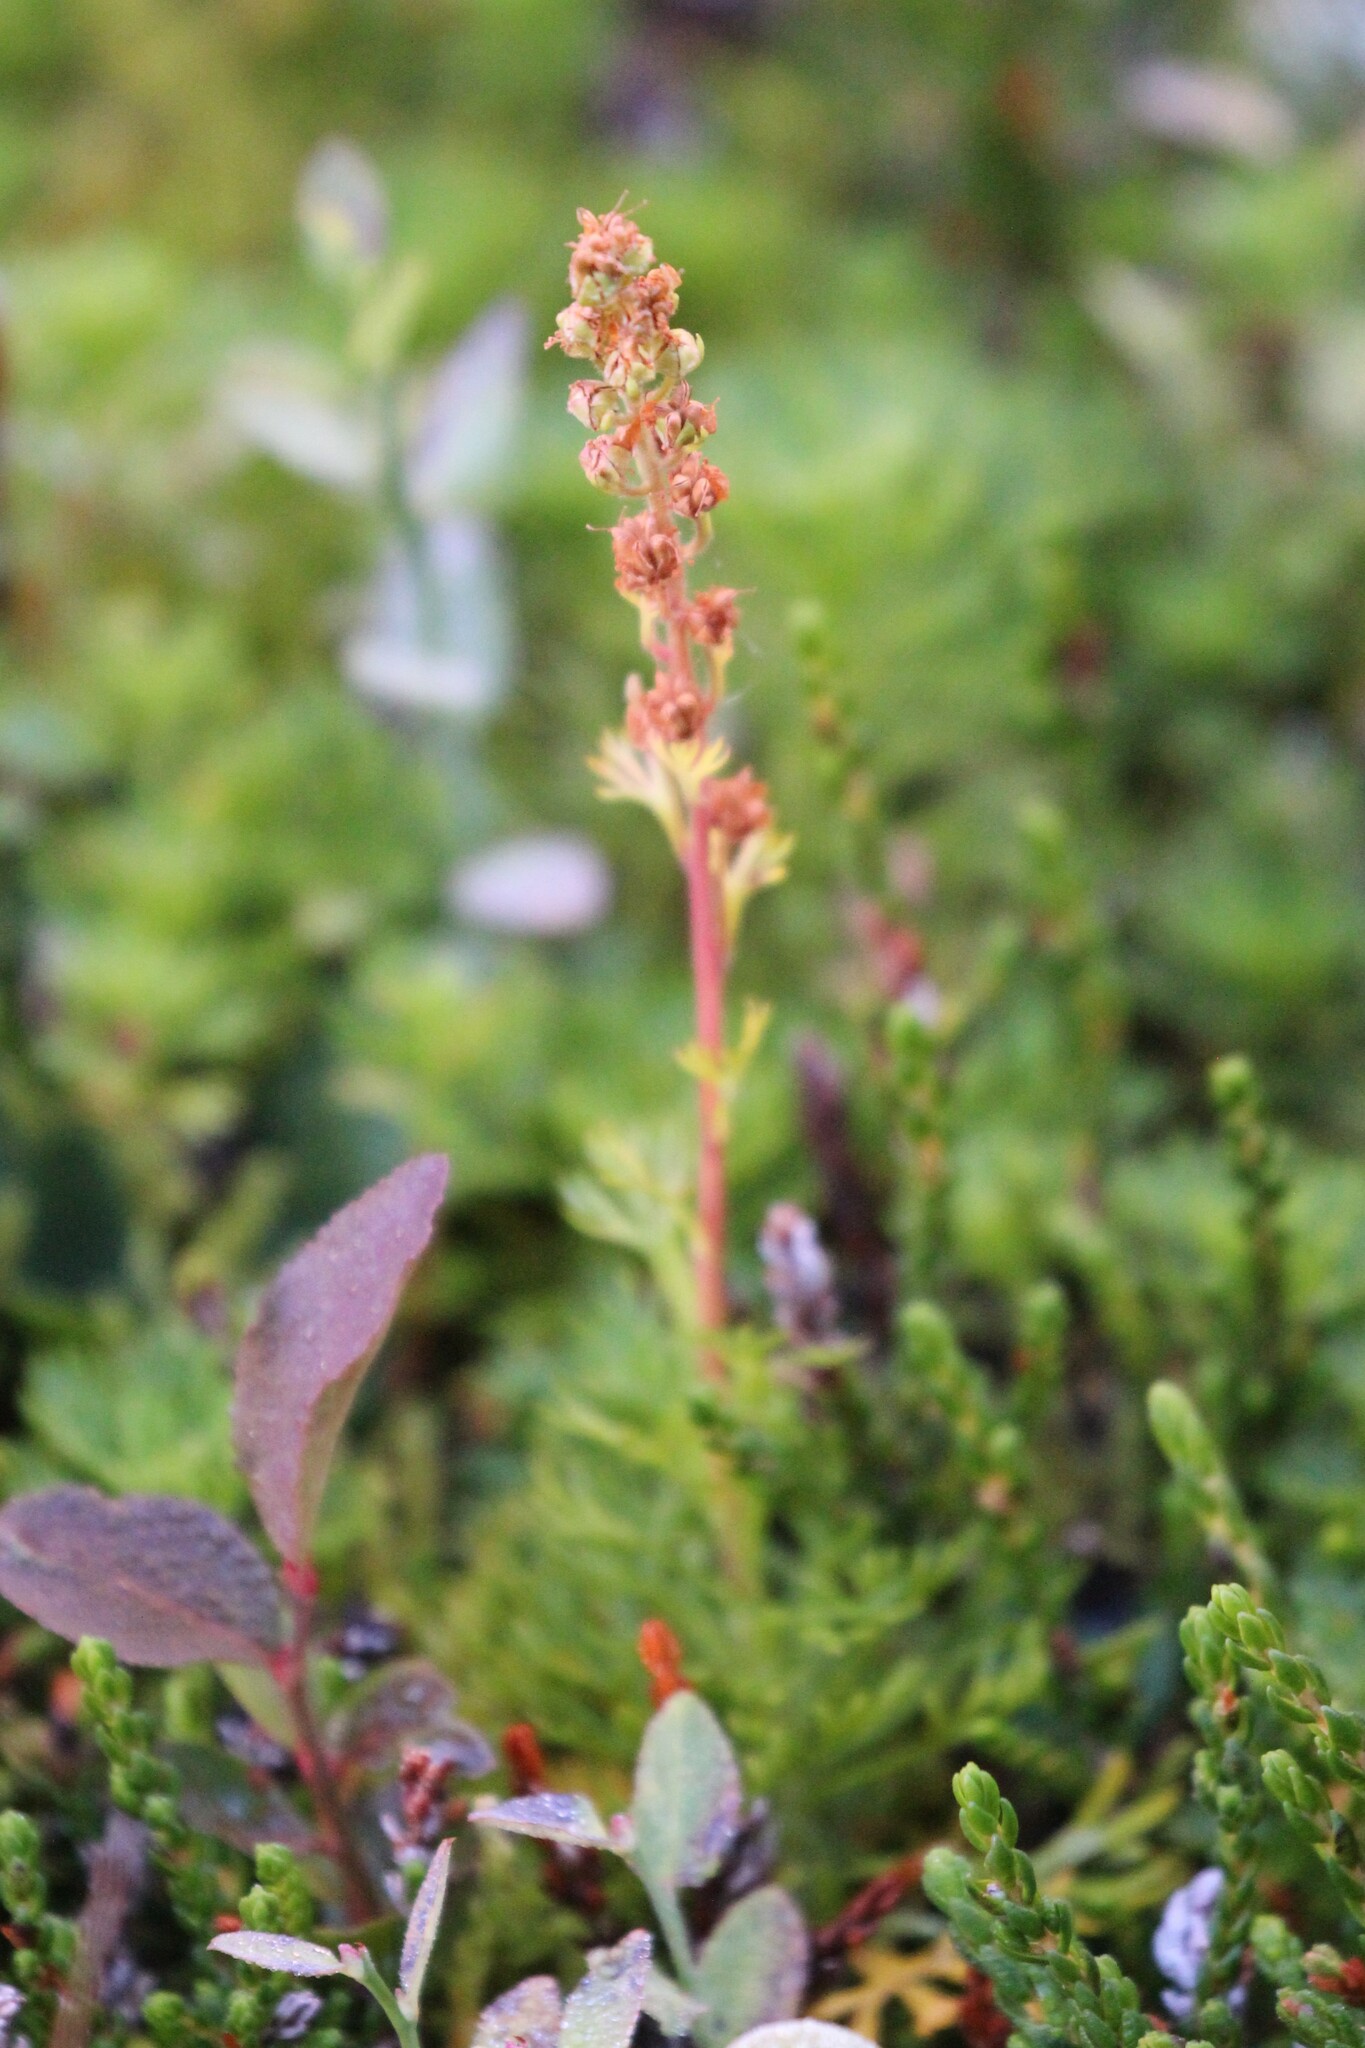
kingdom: Plantae
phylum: Tracheophyta
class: Magnoliopsida
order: Rosales
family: Rosaceae
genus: Luetkea
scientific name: Luetkea pectinata
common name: Partridgefoot
